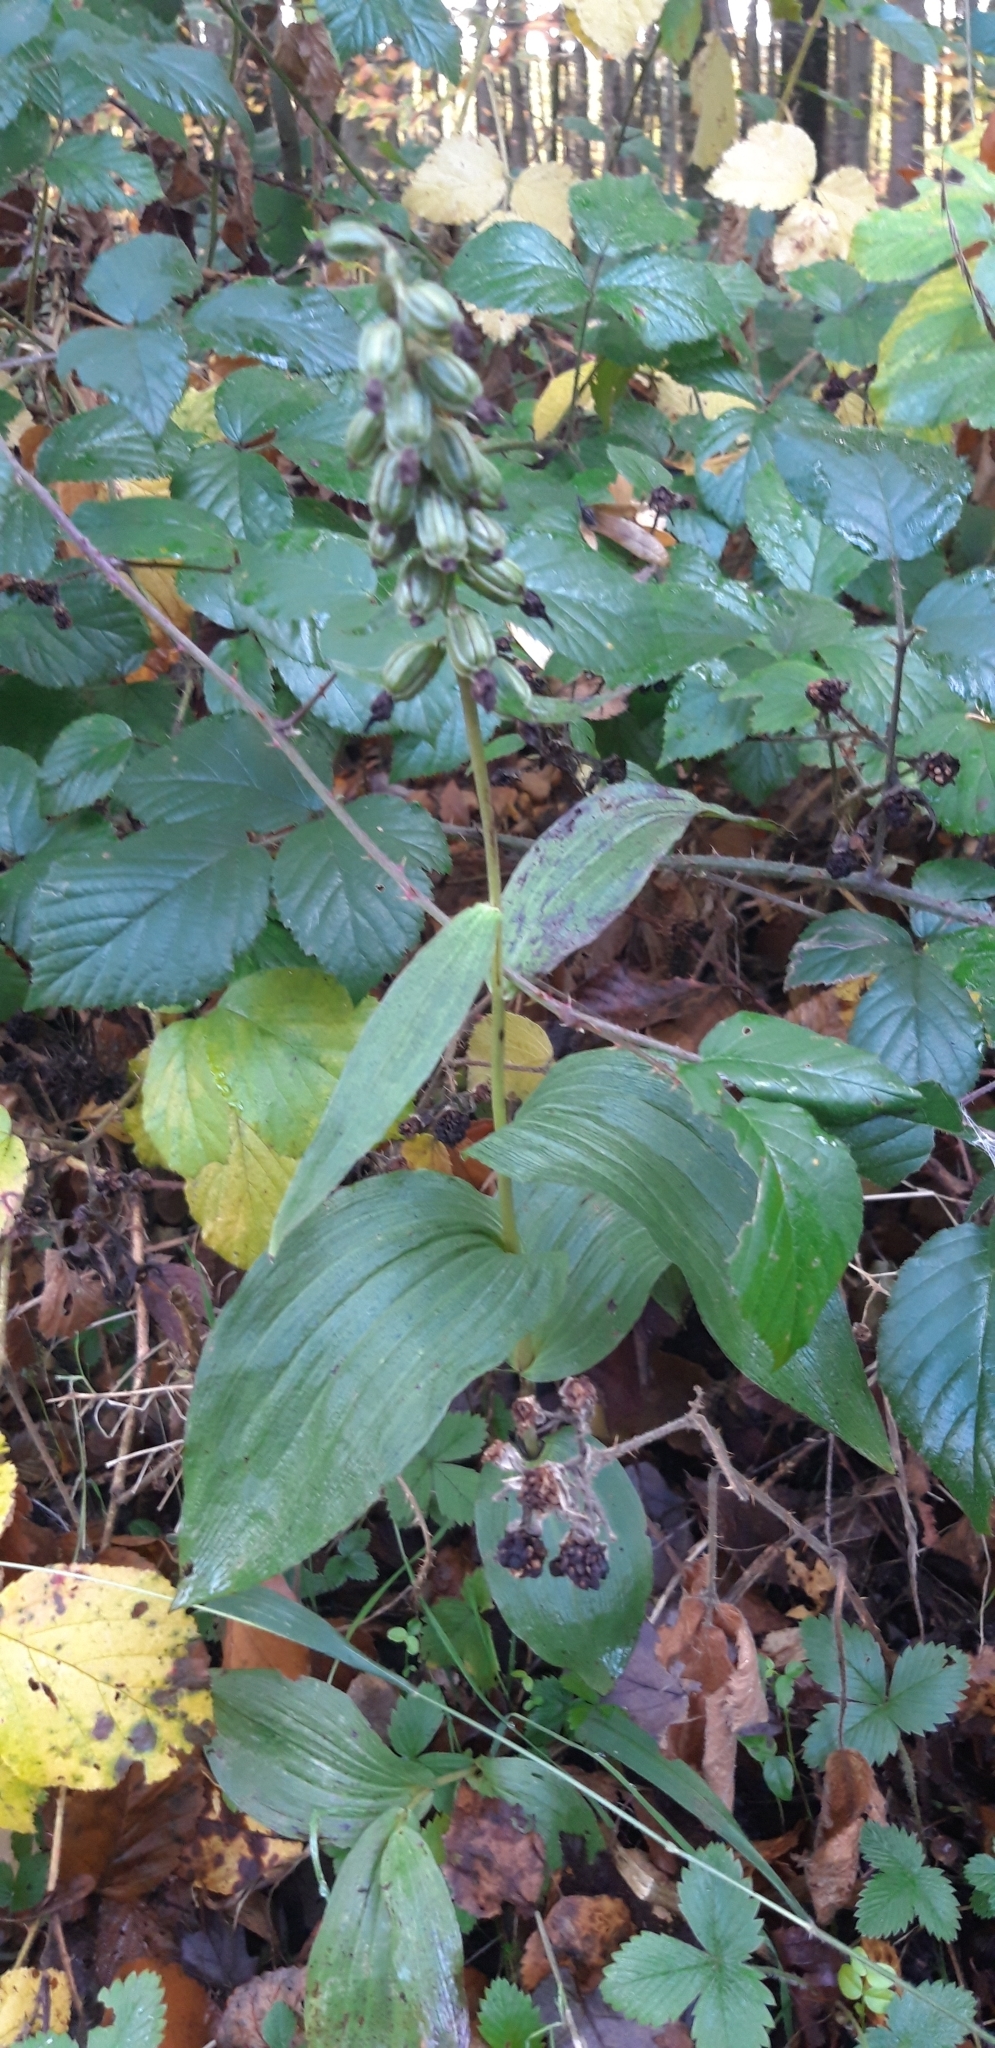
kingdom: Plantae
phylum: Tracheophyta
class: Liliopsida
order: Asparagales
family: Orchidaceae
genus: Epipactis
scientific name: Epipactis helleborine
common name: Broad-leaved helleborine
